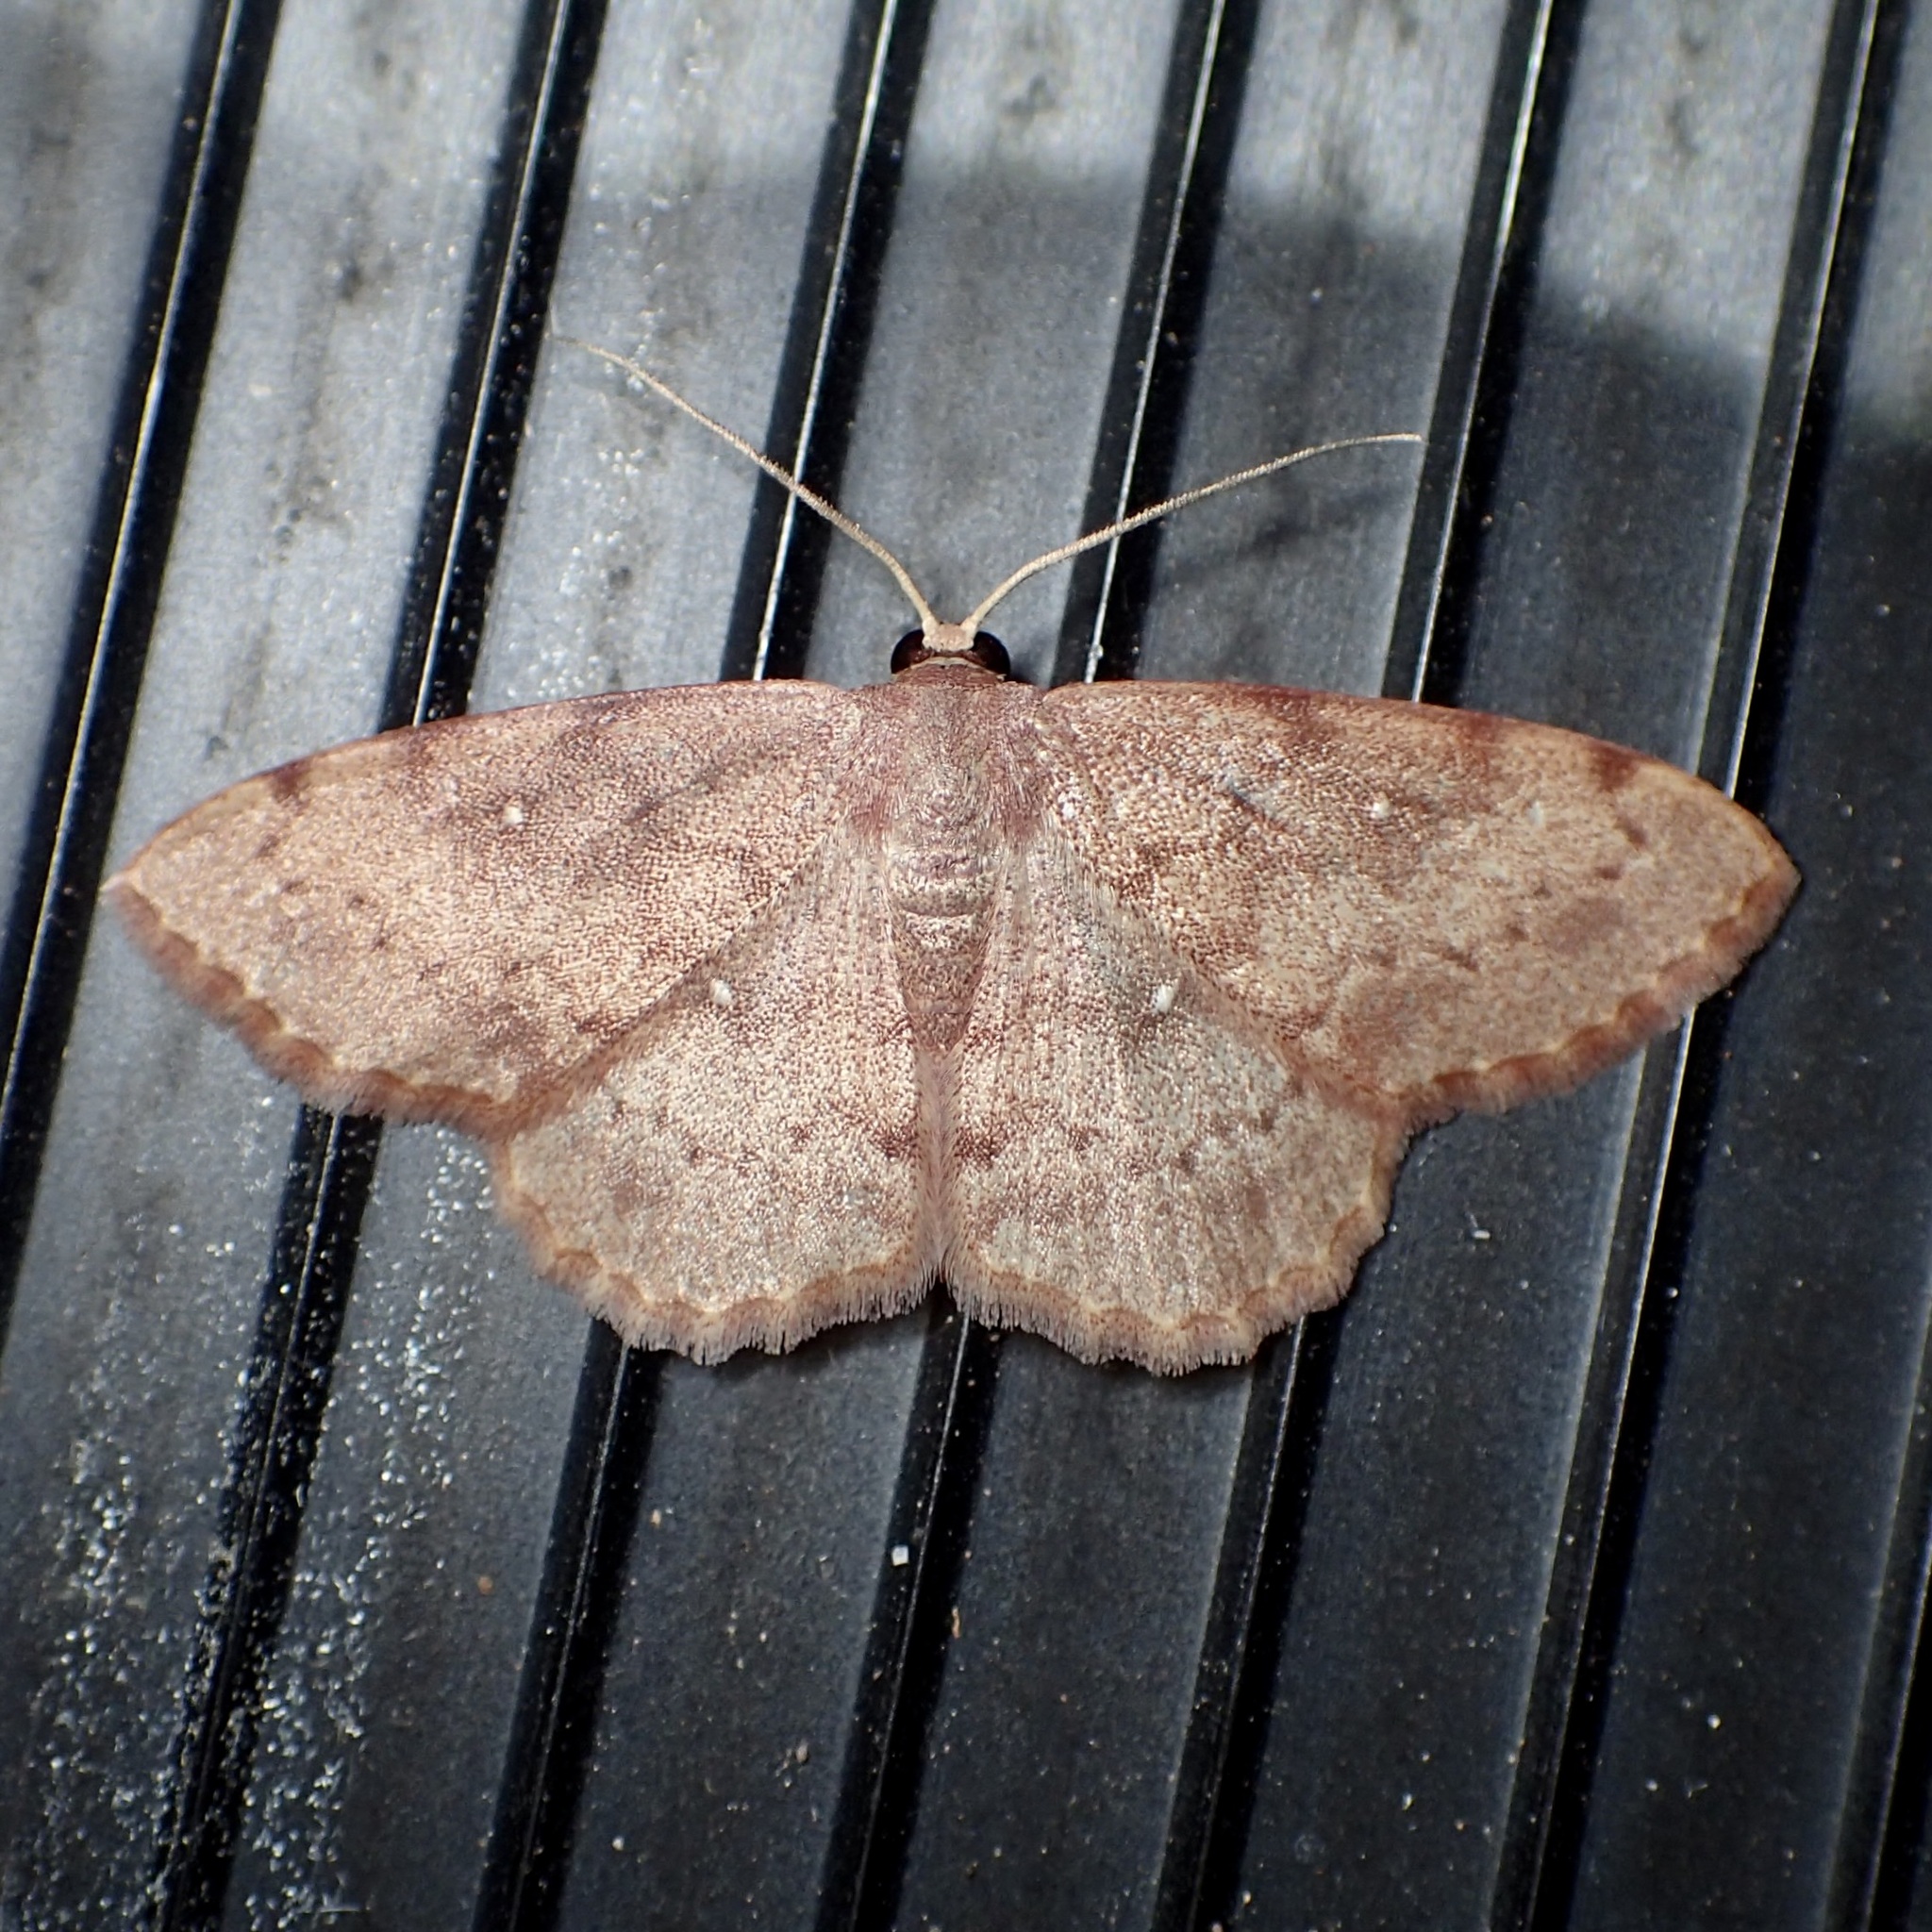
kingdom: Animalia
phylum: Arthropoda
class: Insecta
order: Lepidoptera
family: Geometridae
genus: Semaeopus
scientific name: Semaeopus gracilata
